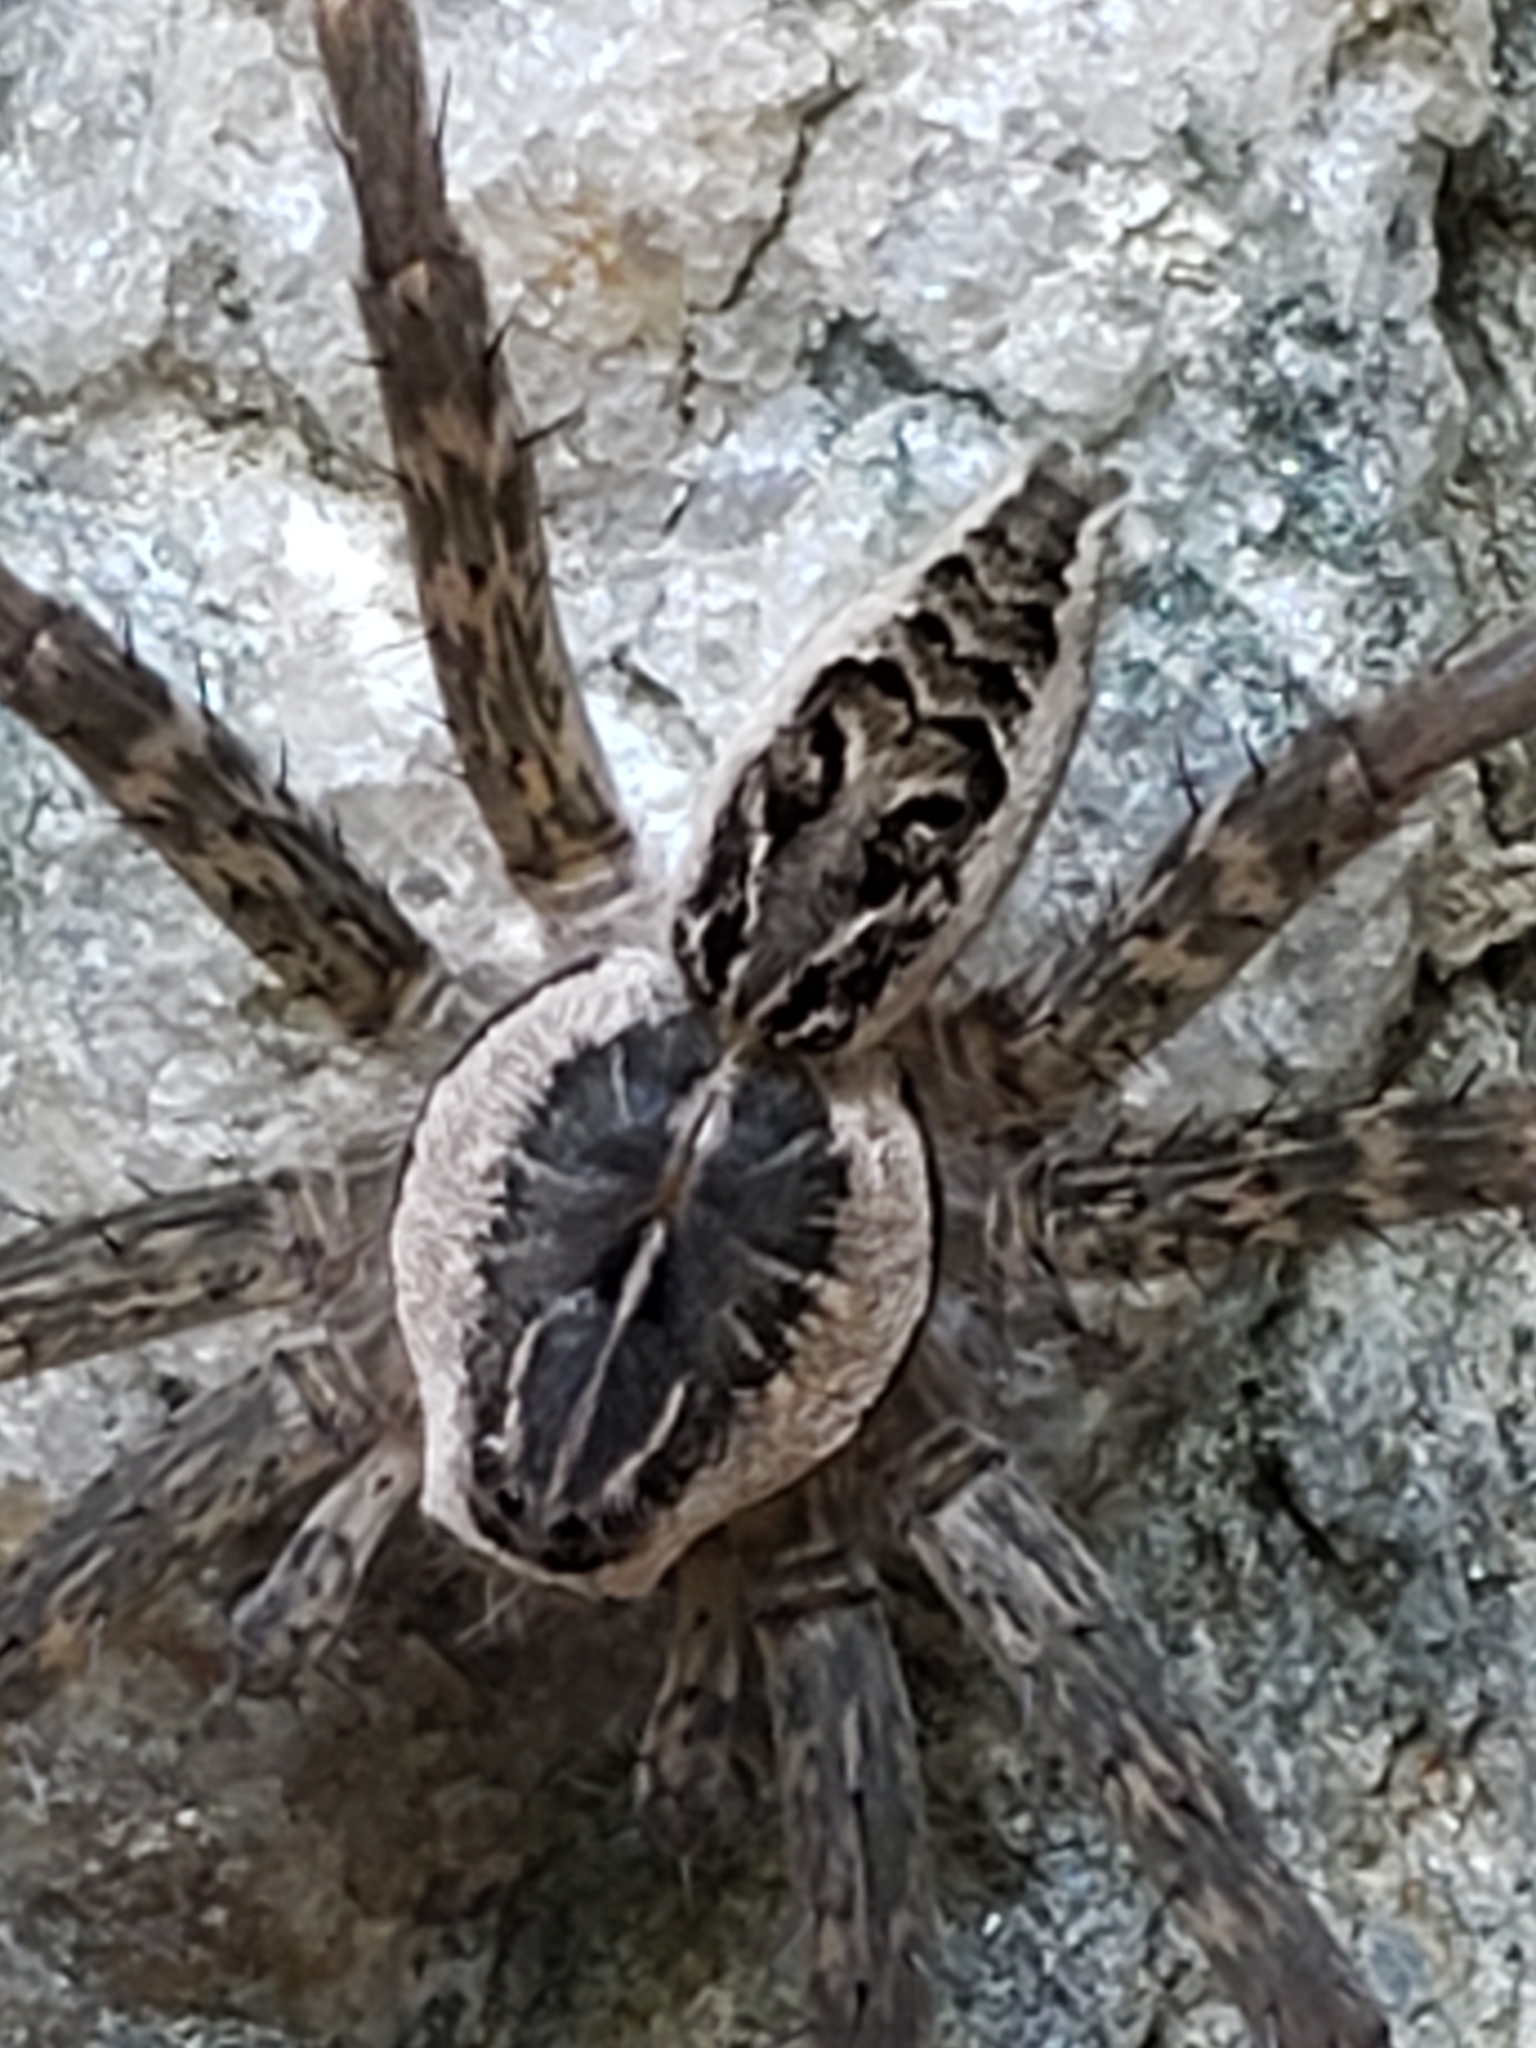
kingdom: Animalia
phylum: Arthropoda
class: Arachnida
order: Araneae
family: Pisauridae
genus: Dolomedes
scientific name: Dolomedes scriptus
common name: Striped fishing spider
